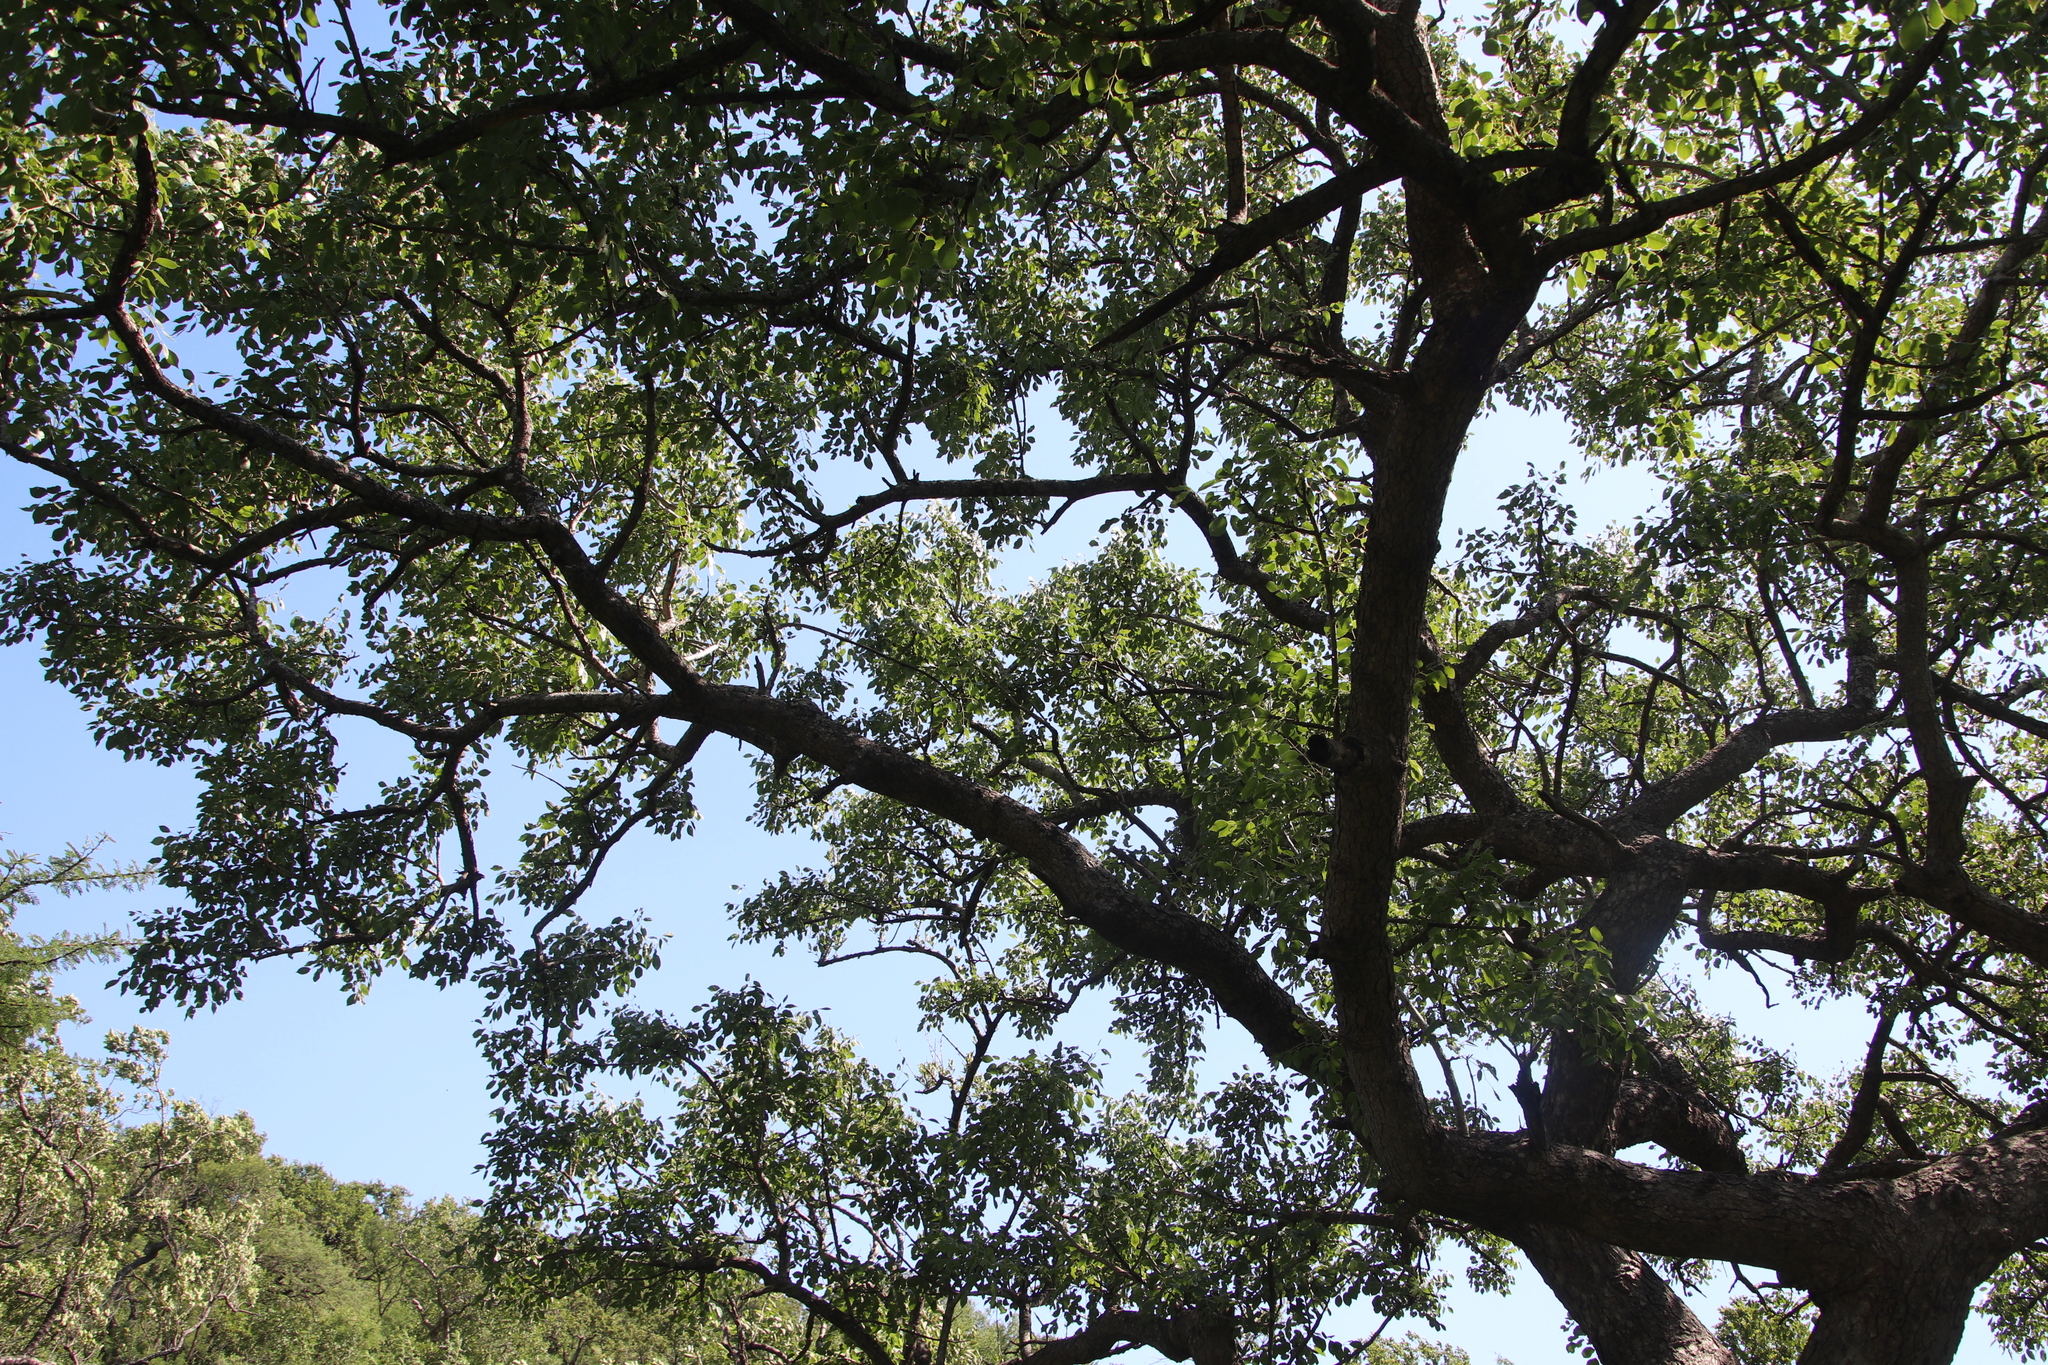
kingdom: Plantae
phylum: Tracheophyta
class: Magnoliopsida
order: Sapindales
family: Anacardiaceae
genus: Sclerocarya
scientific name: Sclerocarya birrea
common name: Marula
